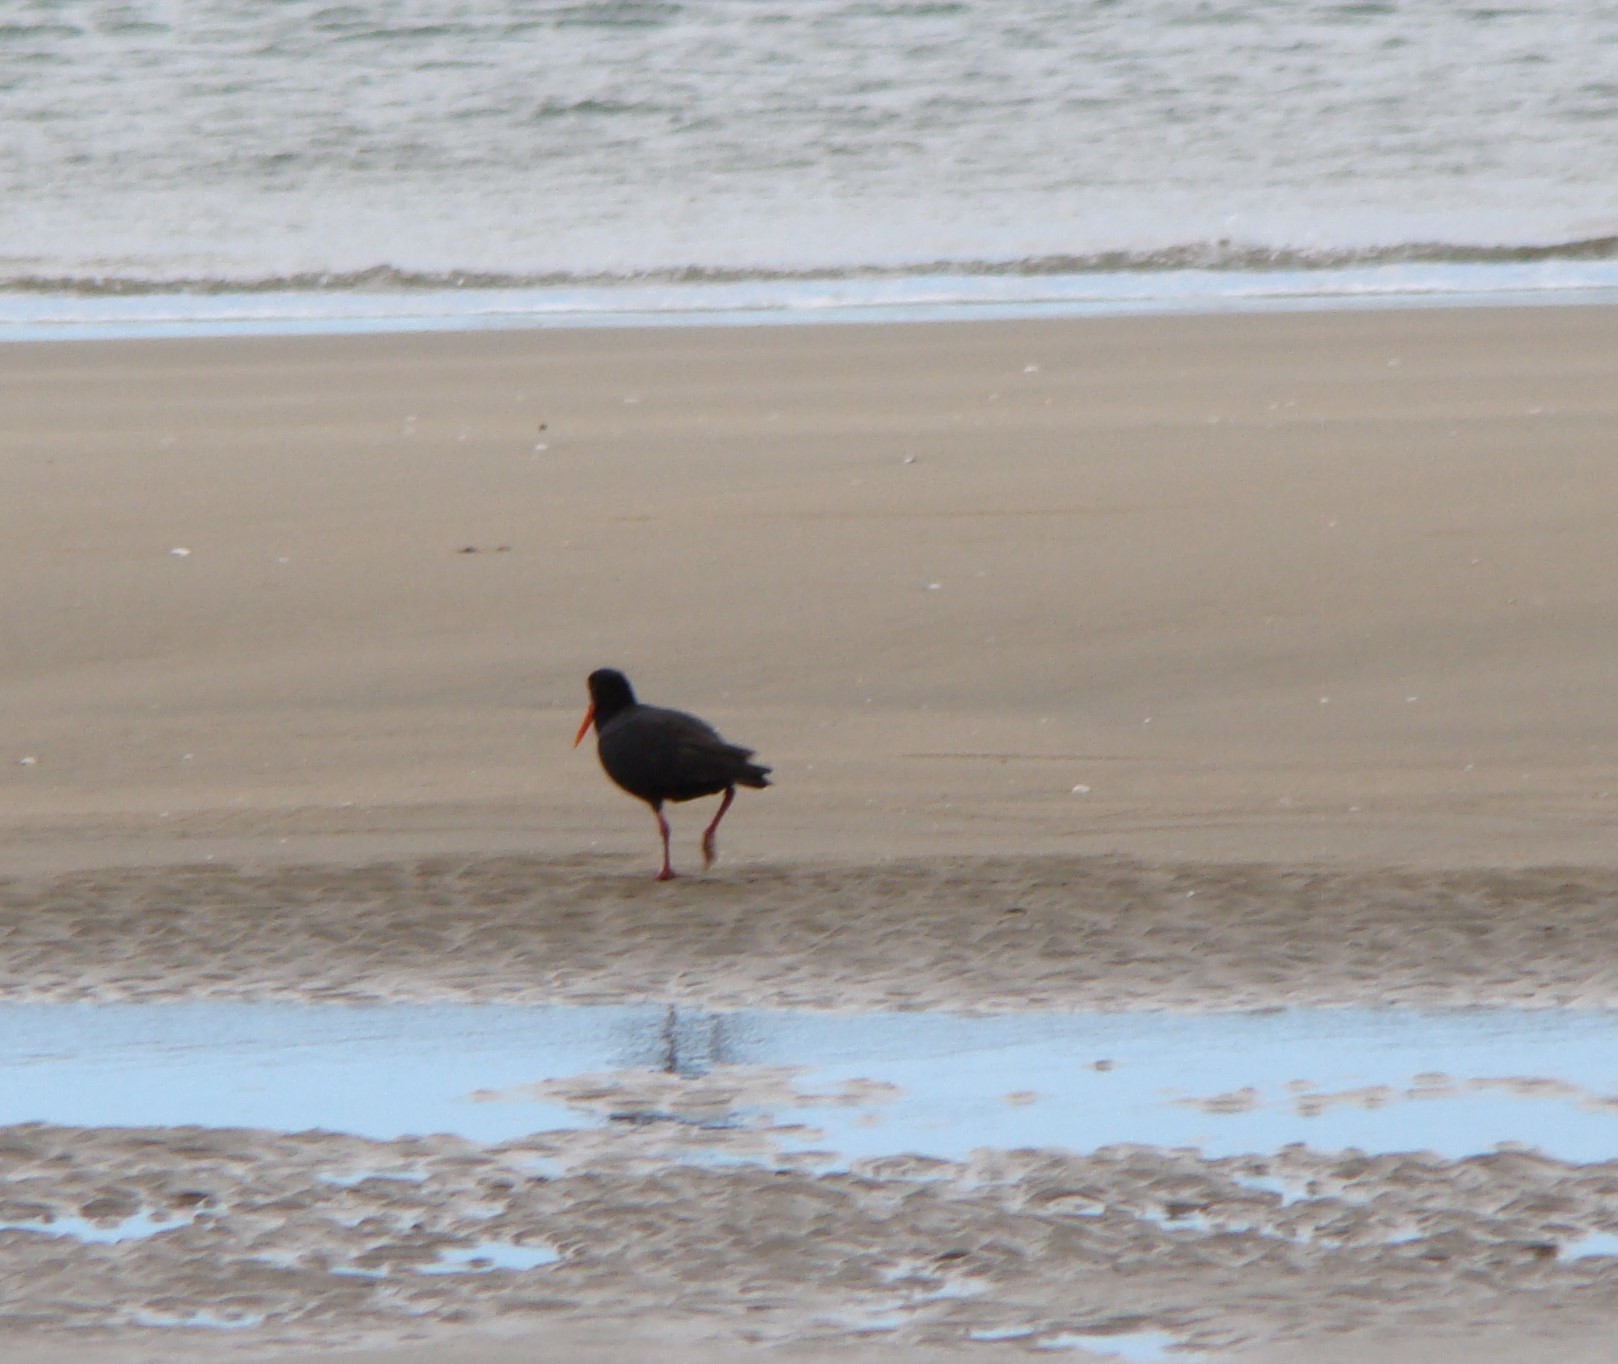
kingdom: Animalia
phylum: Chordata
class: Aves
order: Charadriiformes
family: Haematopodidae
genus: Haematopus
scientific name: Haematopus unicolor
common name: Variable oystercatcher
